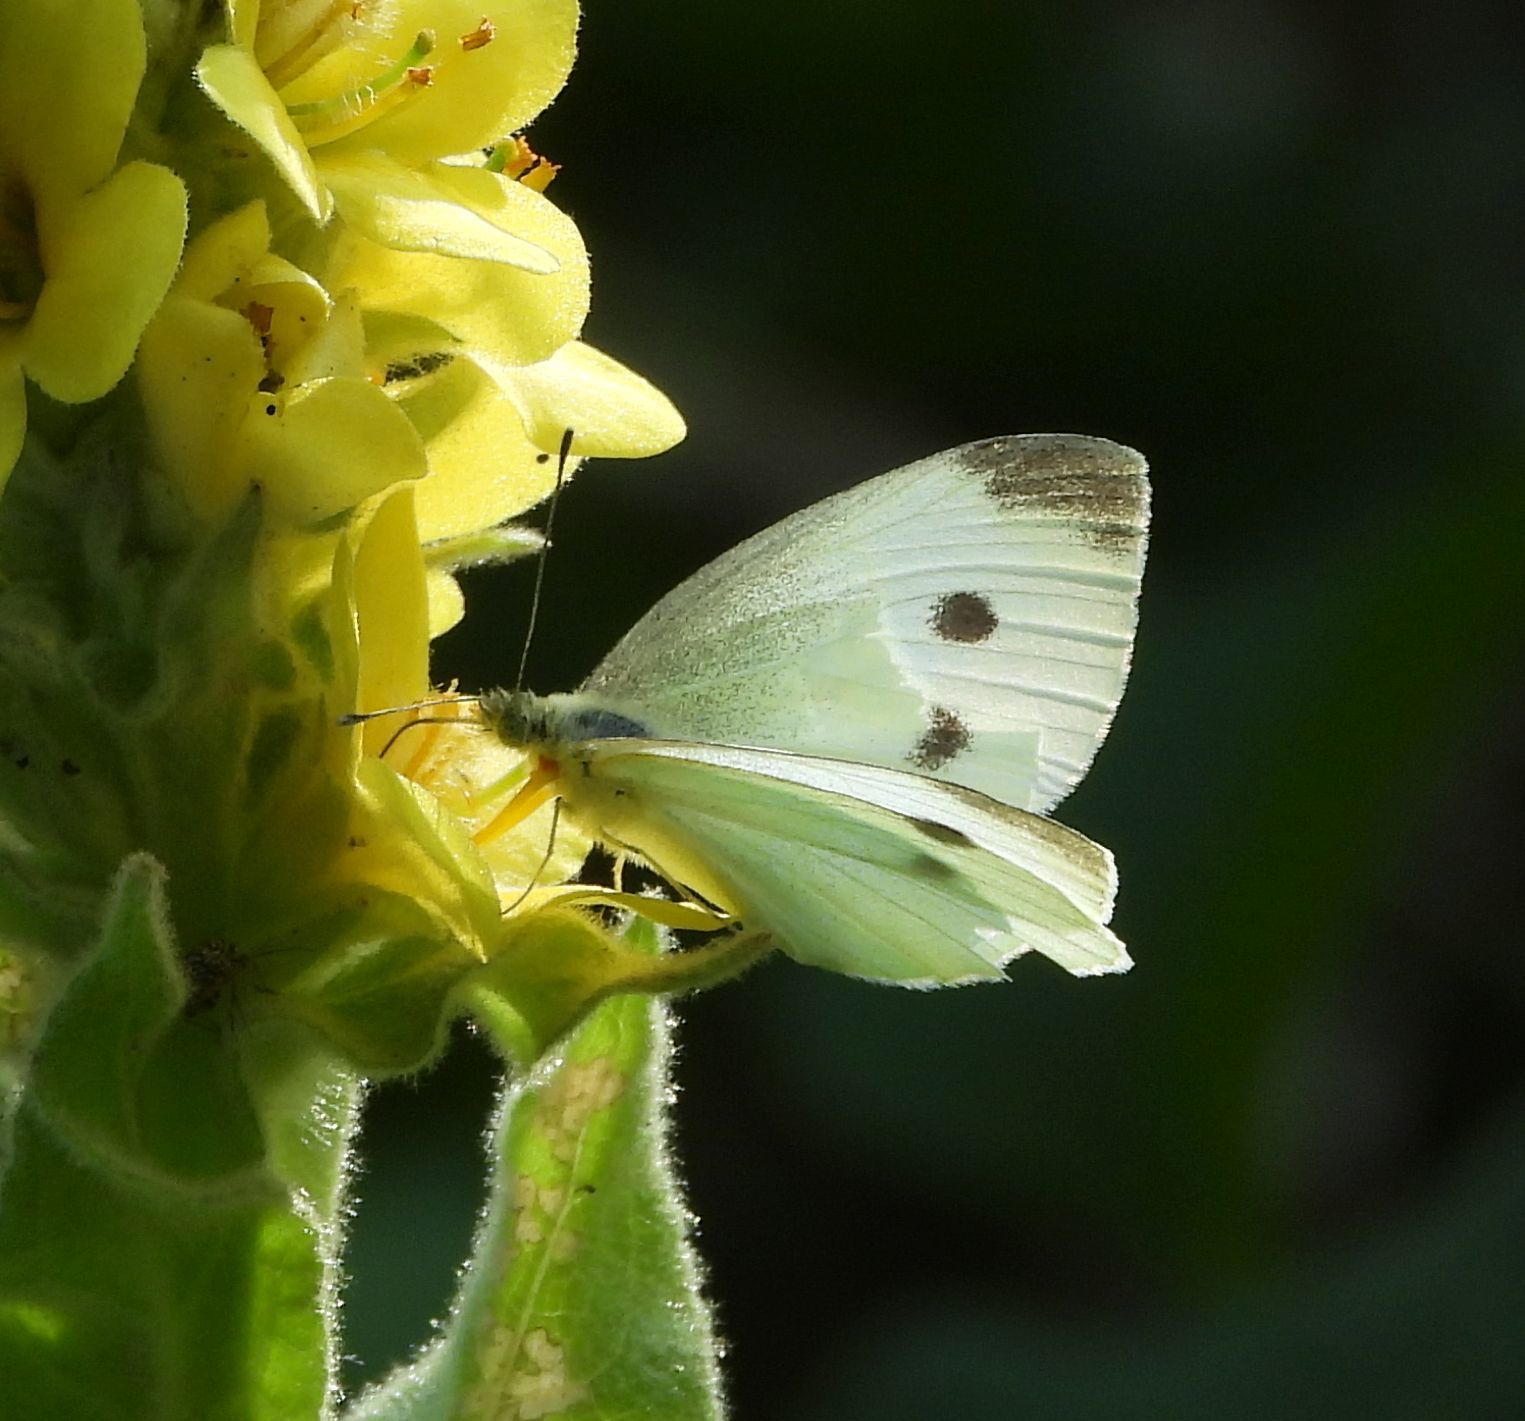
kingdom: Animalia
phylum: Arthropoda
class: Insecta
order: Lepidoptera
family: Pieridae
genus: Pieris
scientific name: Pieris rapae
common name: Small white
